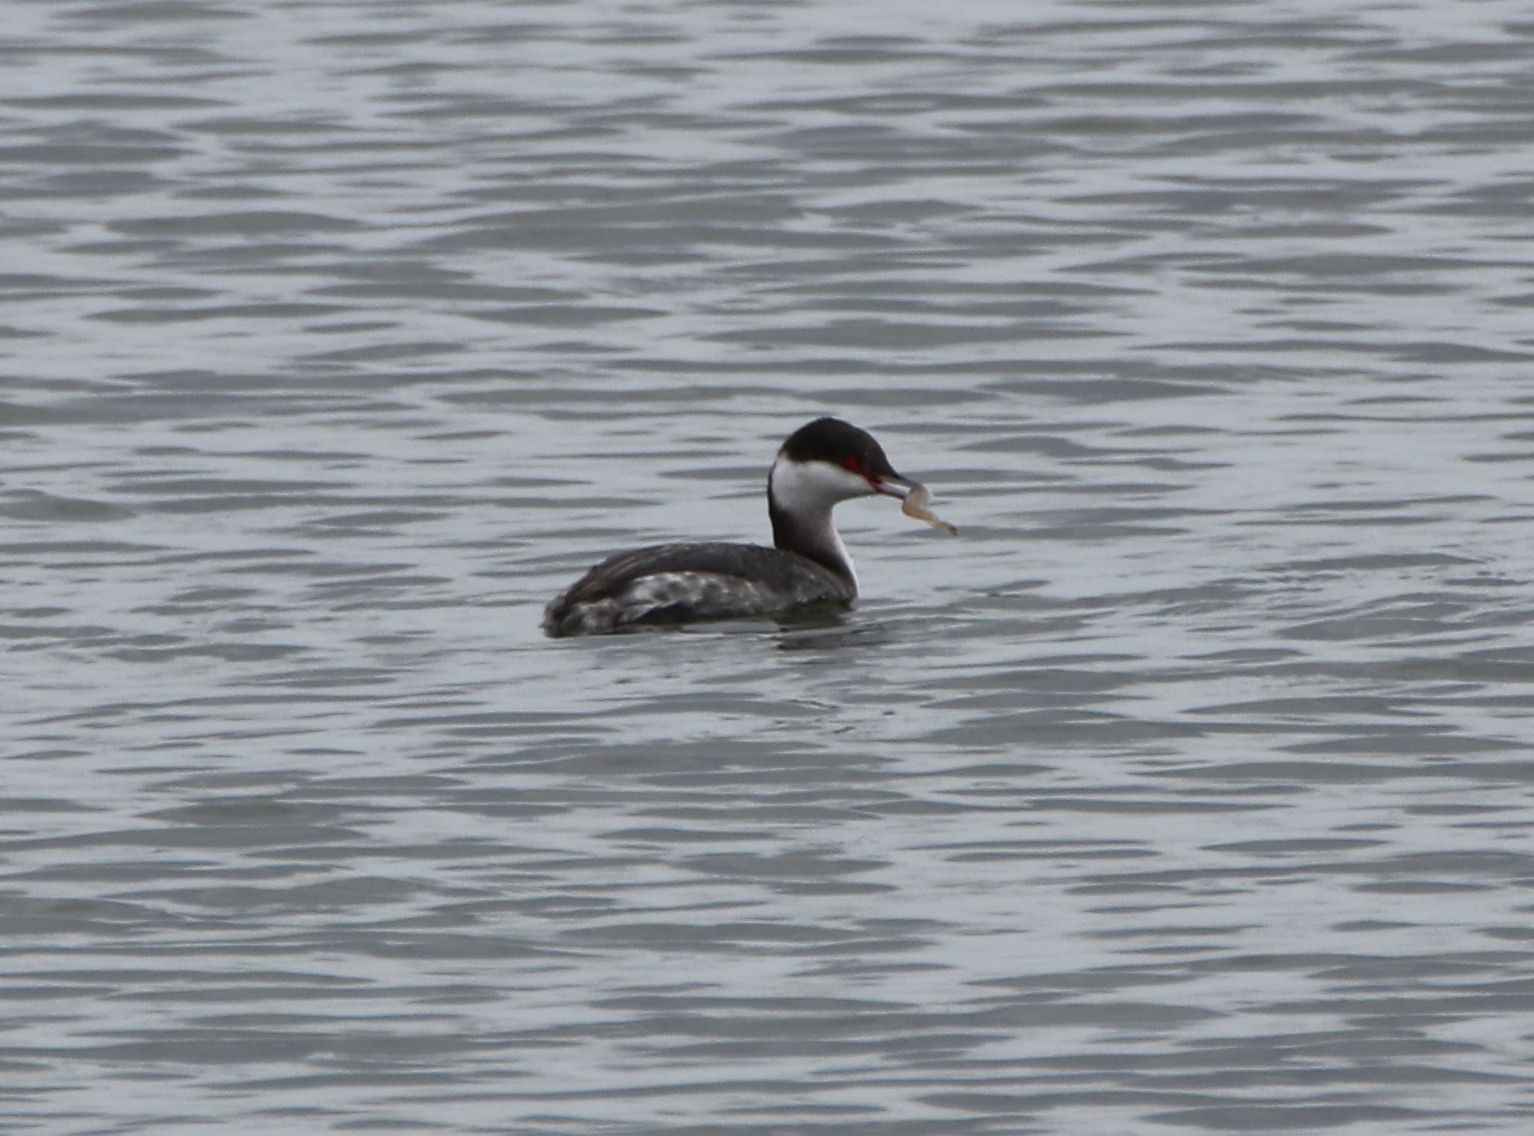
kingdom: Animalia
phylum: Chordata
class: Aves
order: Podicipediformes
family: Podicipedidae
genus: Podiceps
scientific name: Podiceps auritus
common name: Horned grebe
